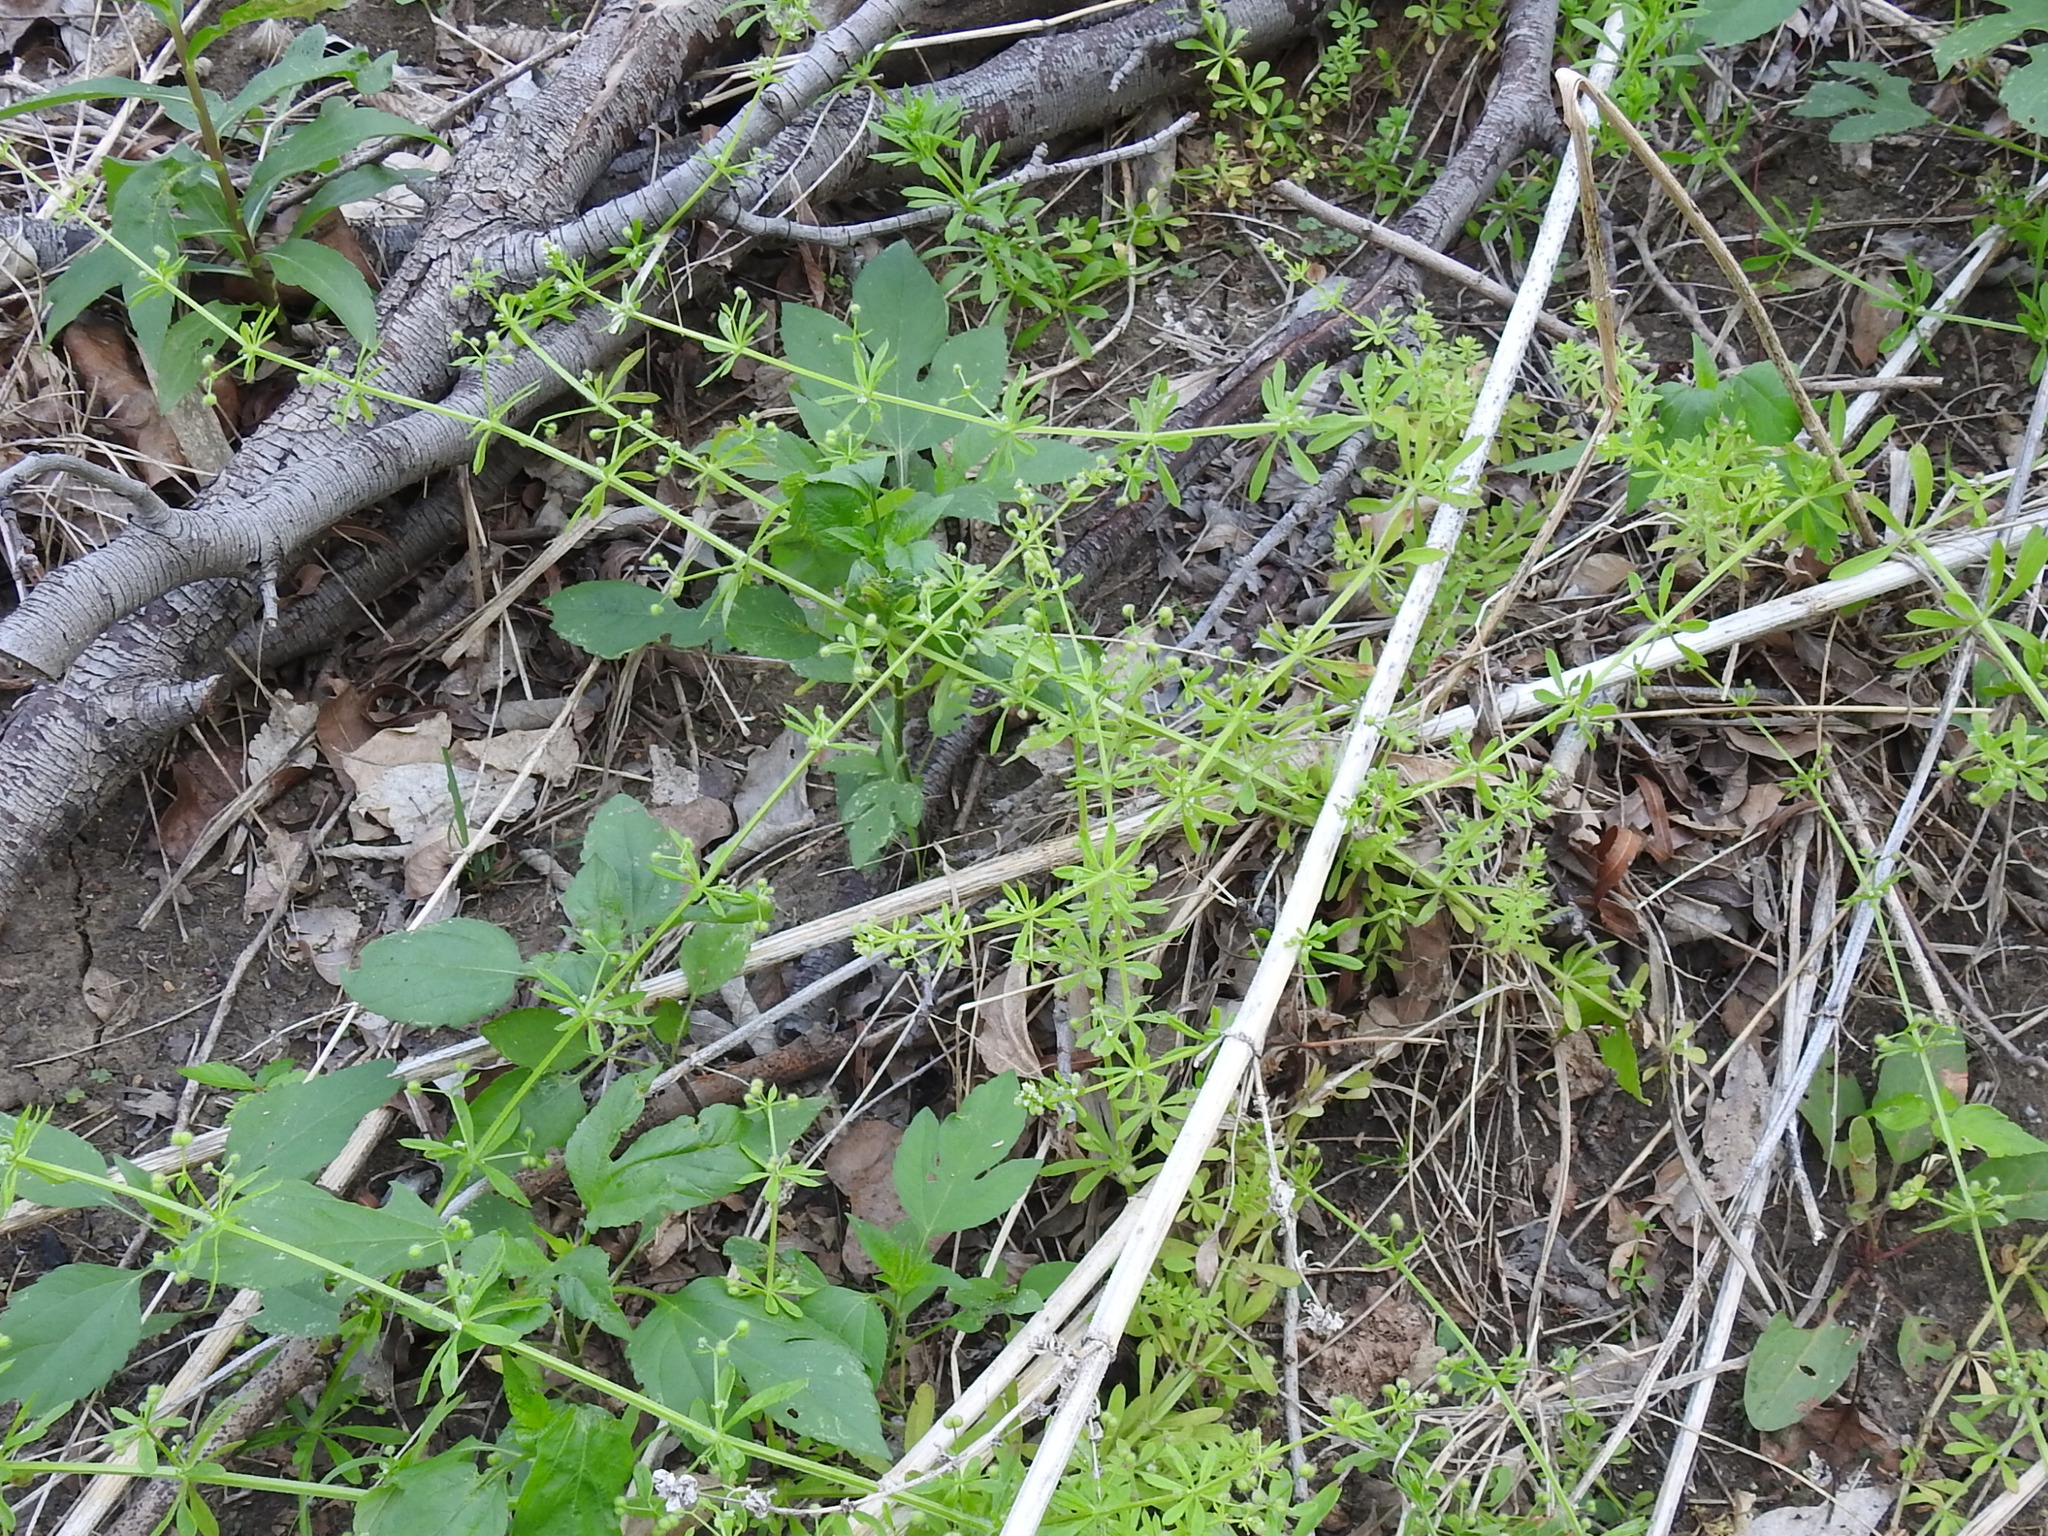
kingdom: Plantae
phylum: Tracheophyta
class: Magnoliopsida
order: Gentianales
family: Rubiaceae
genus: Galium
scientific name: Galium aparine
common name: Cleavers
